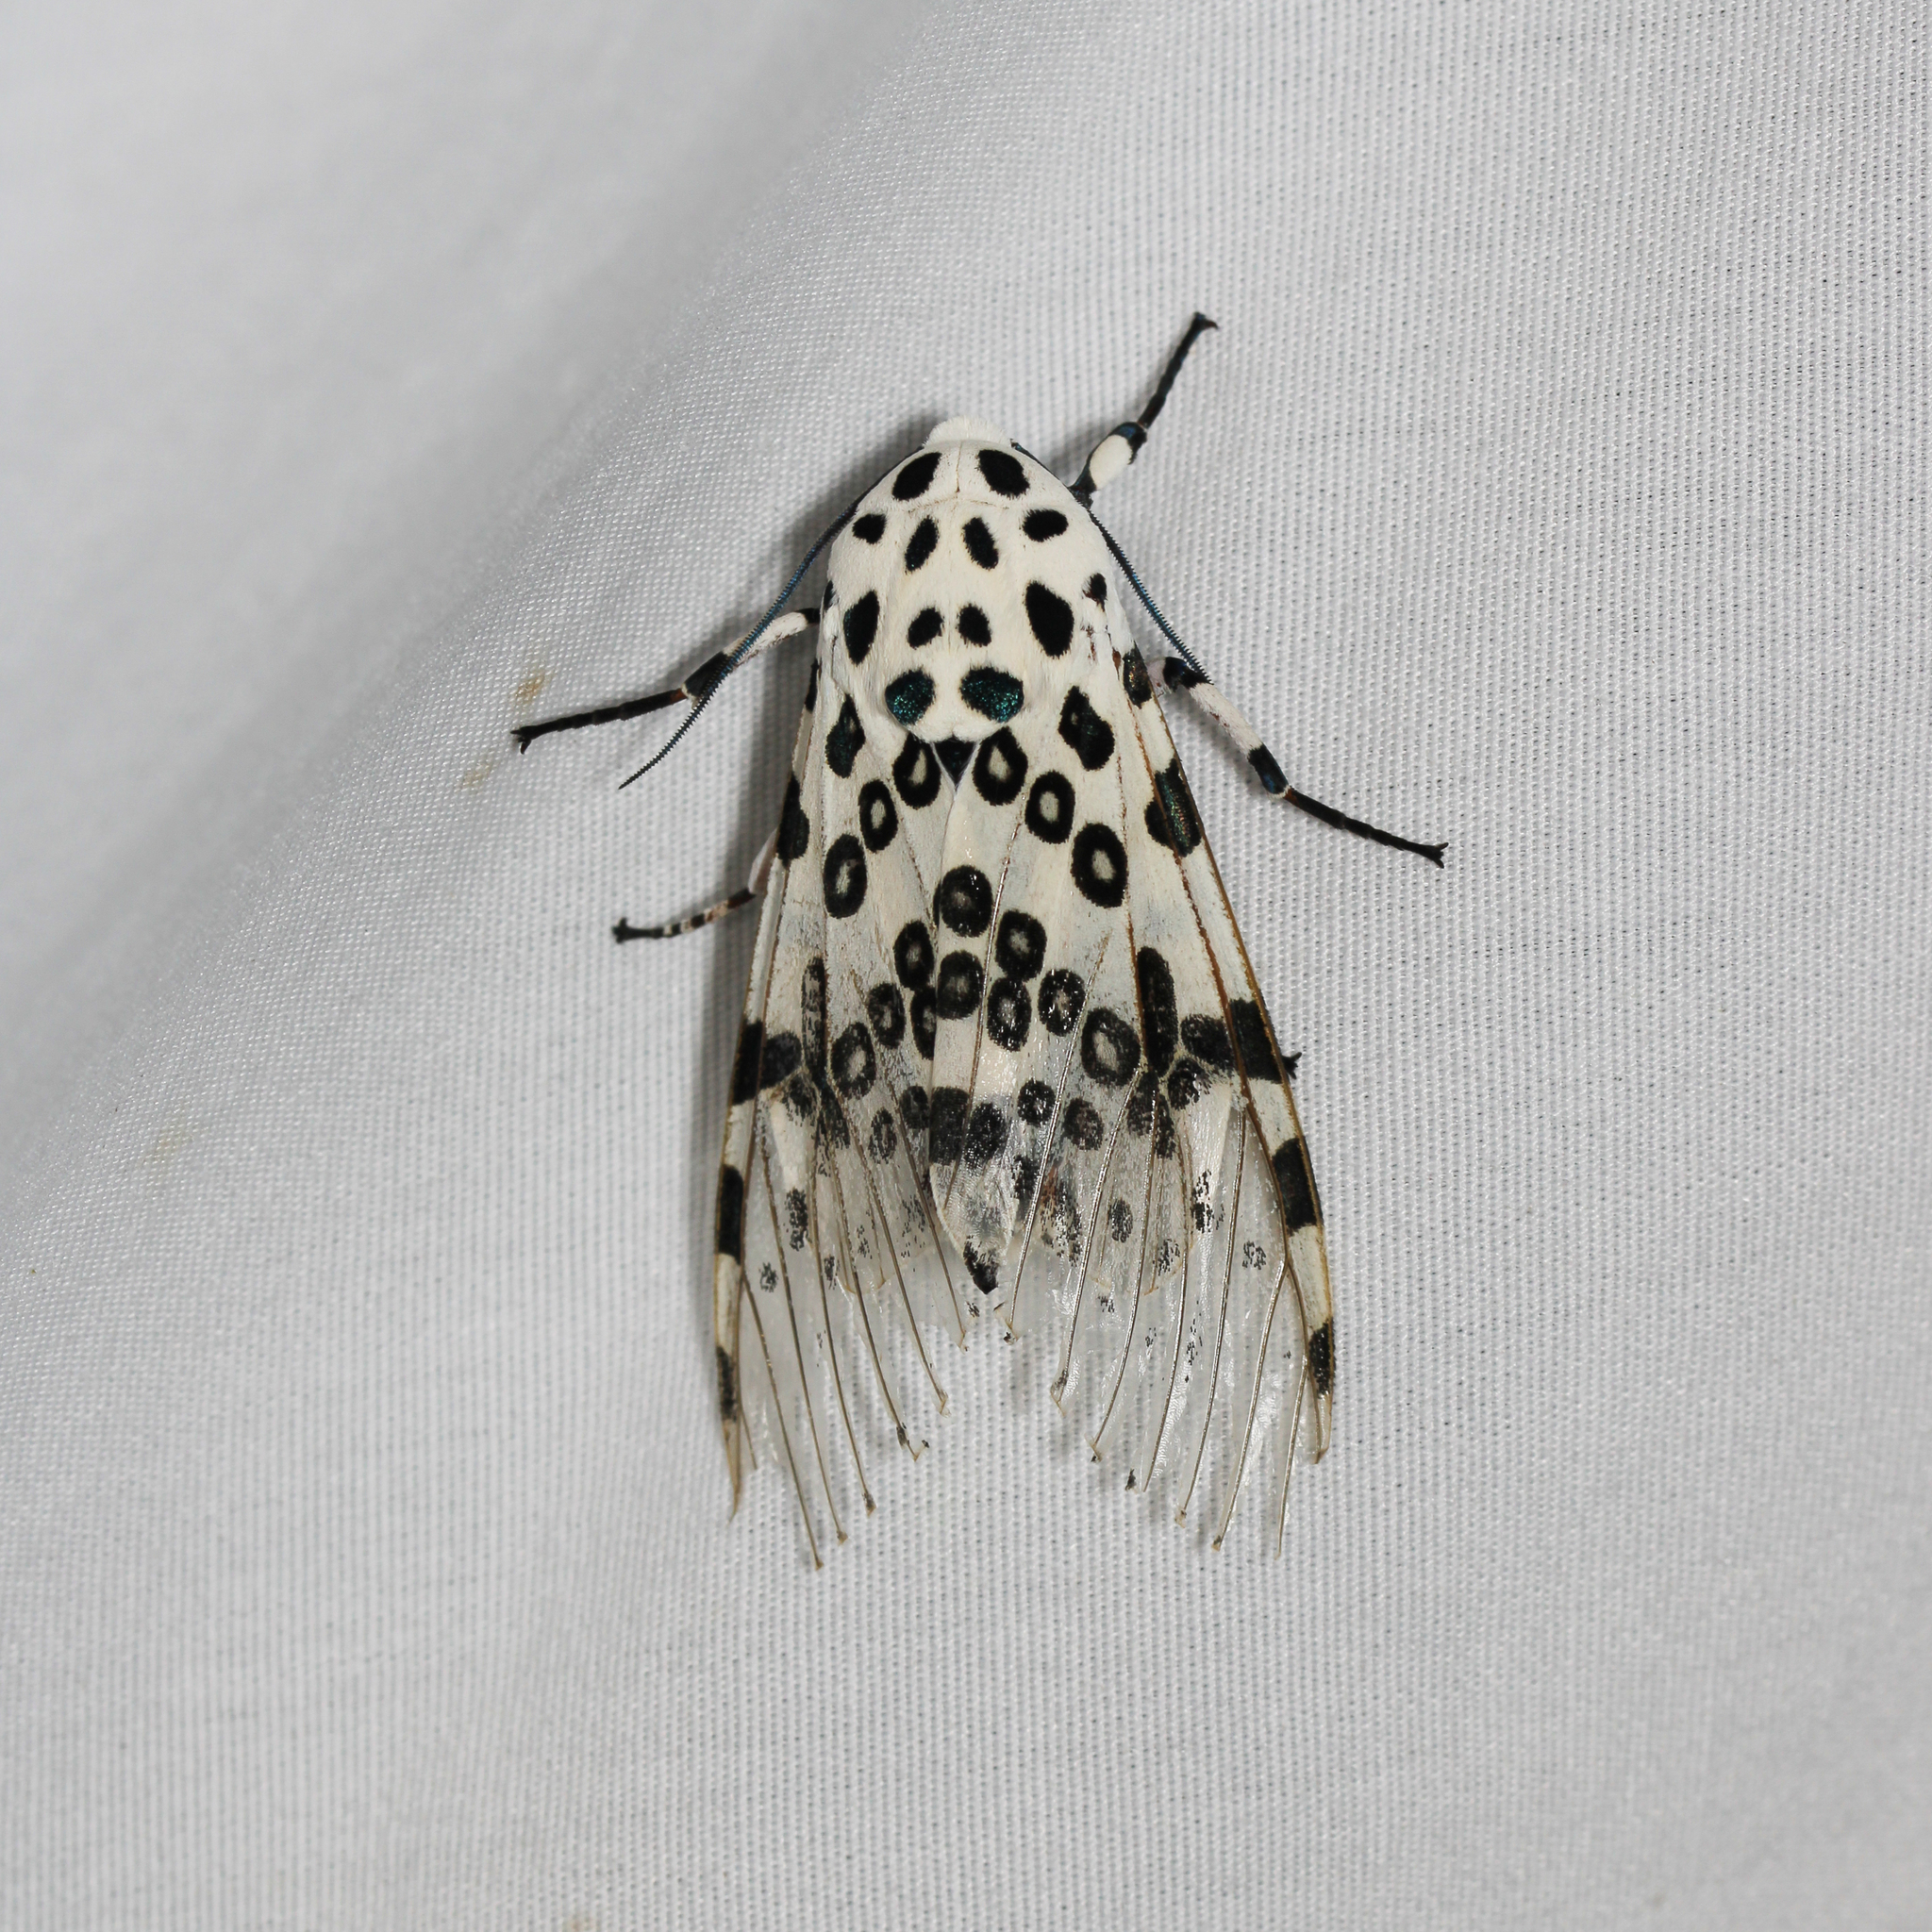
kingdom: Animalia
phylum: Arthropoda
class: Insecta
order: Lepidoptera
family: Erebidae
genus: Hypercompe
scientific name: Hypercompe scribonia
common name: Giant leopard moth
